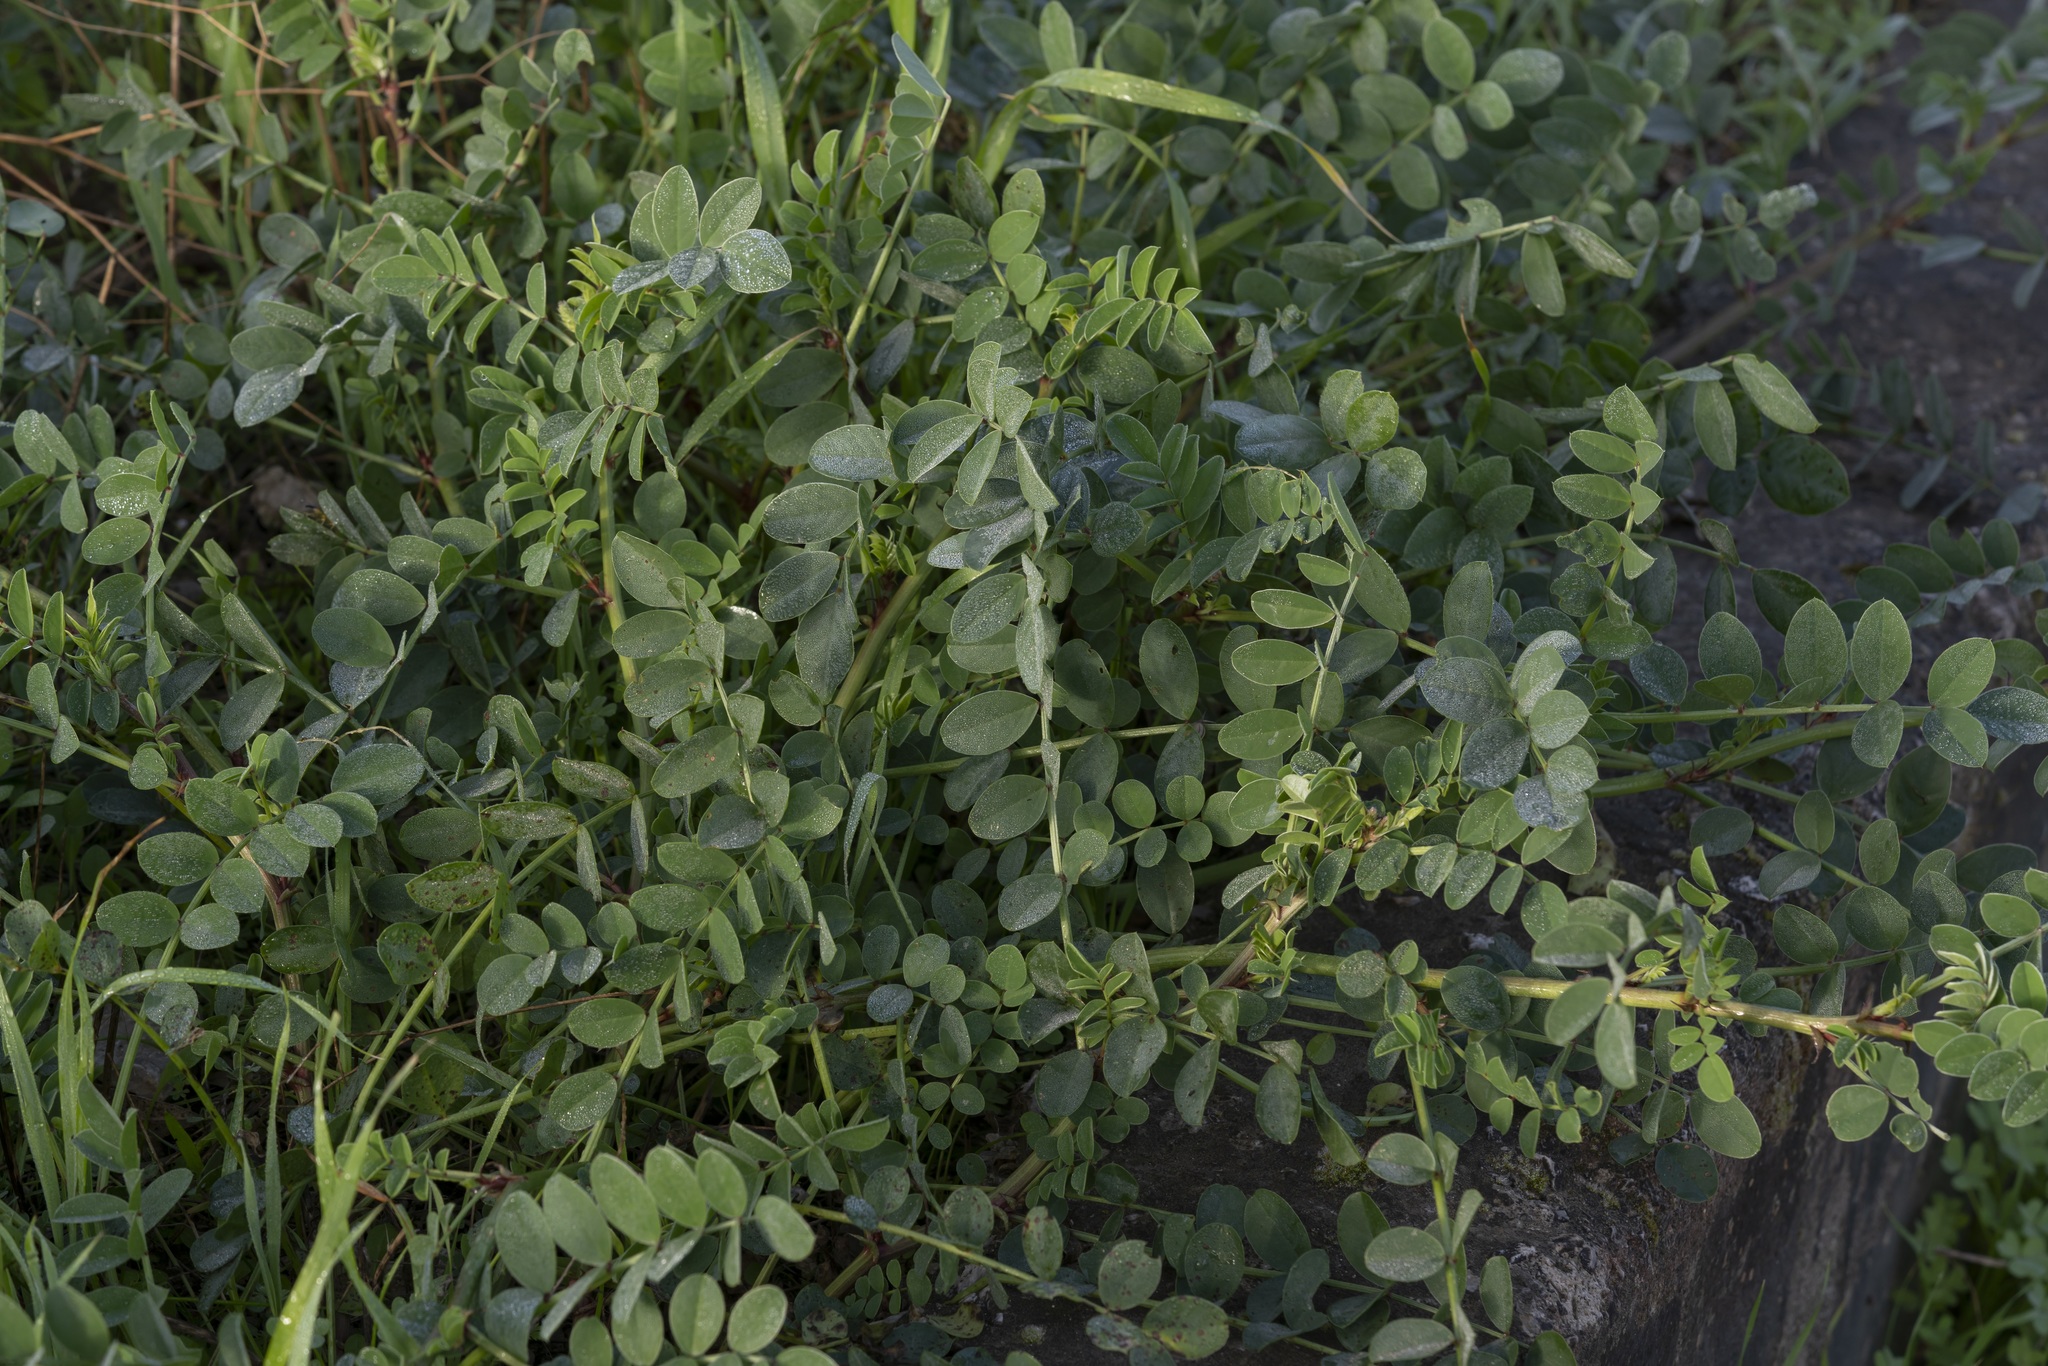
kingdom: Plantae
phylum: Tracheophyta
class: Magnoliopsida
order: Fabales
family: Fabaceae
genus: Sulla
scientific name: Sulla coronaria
